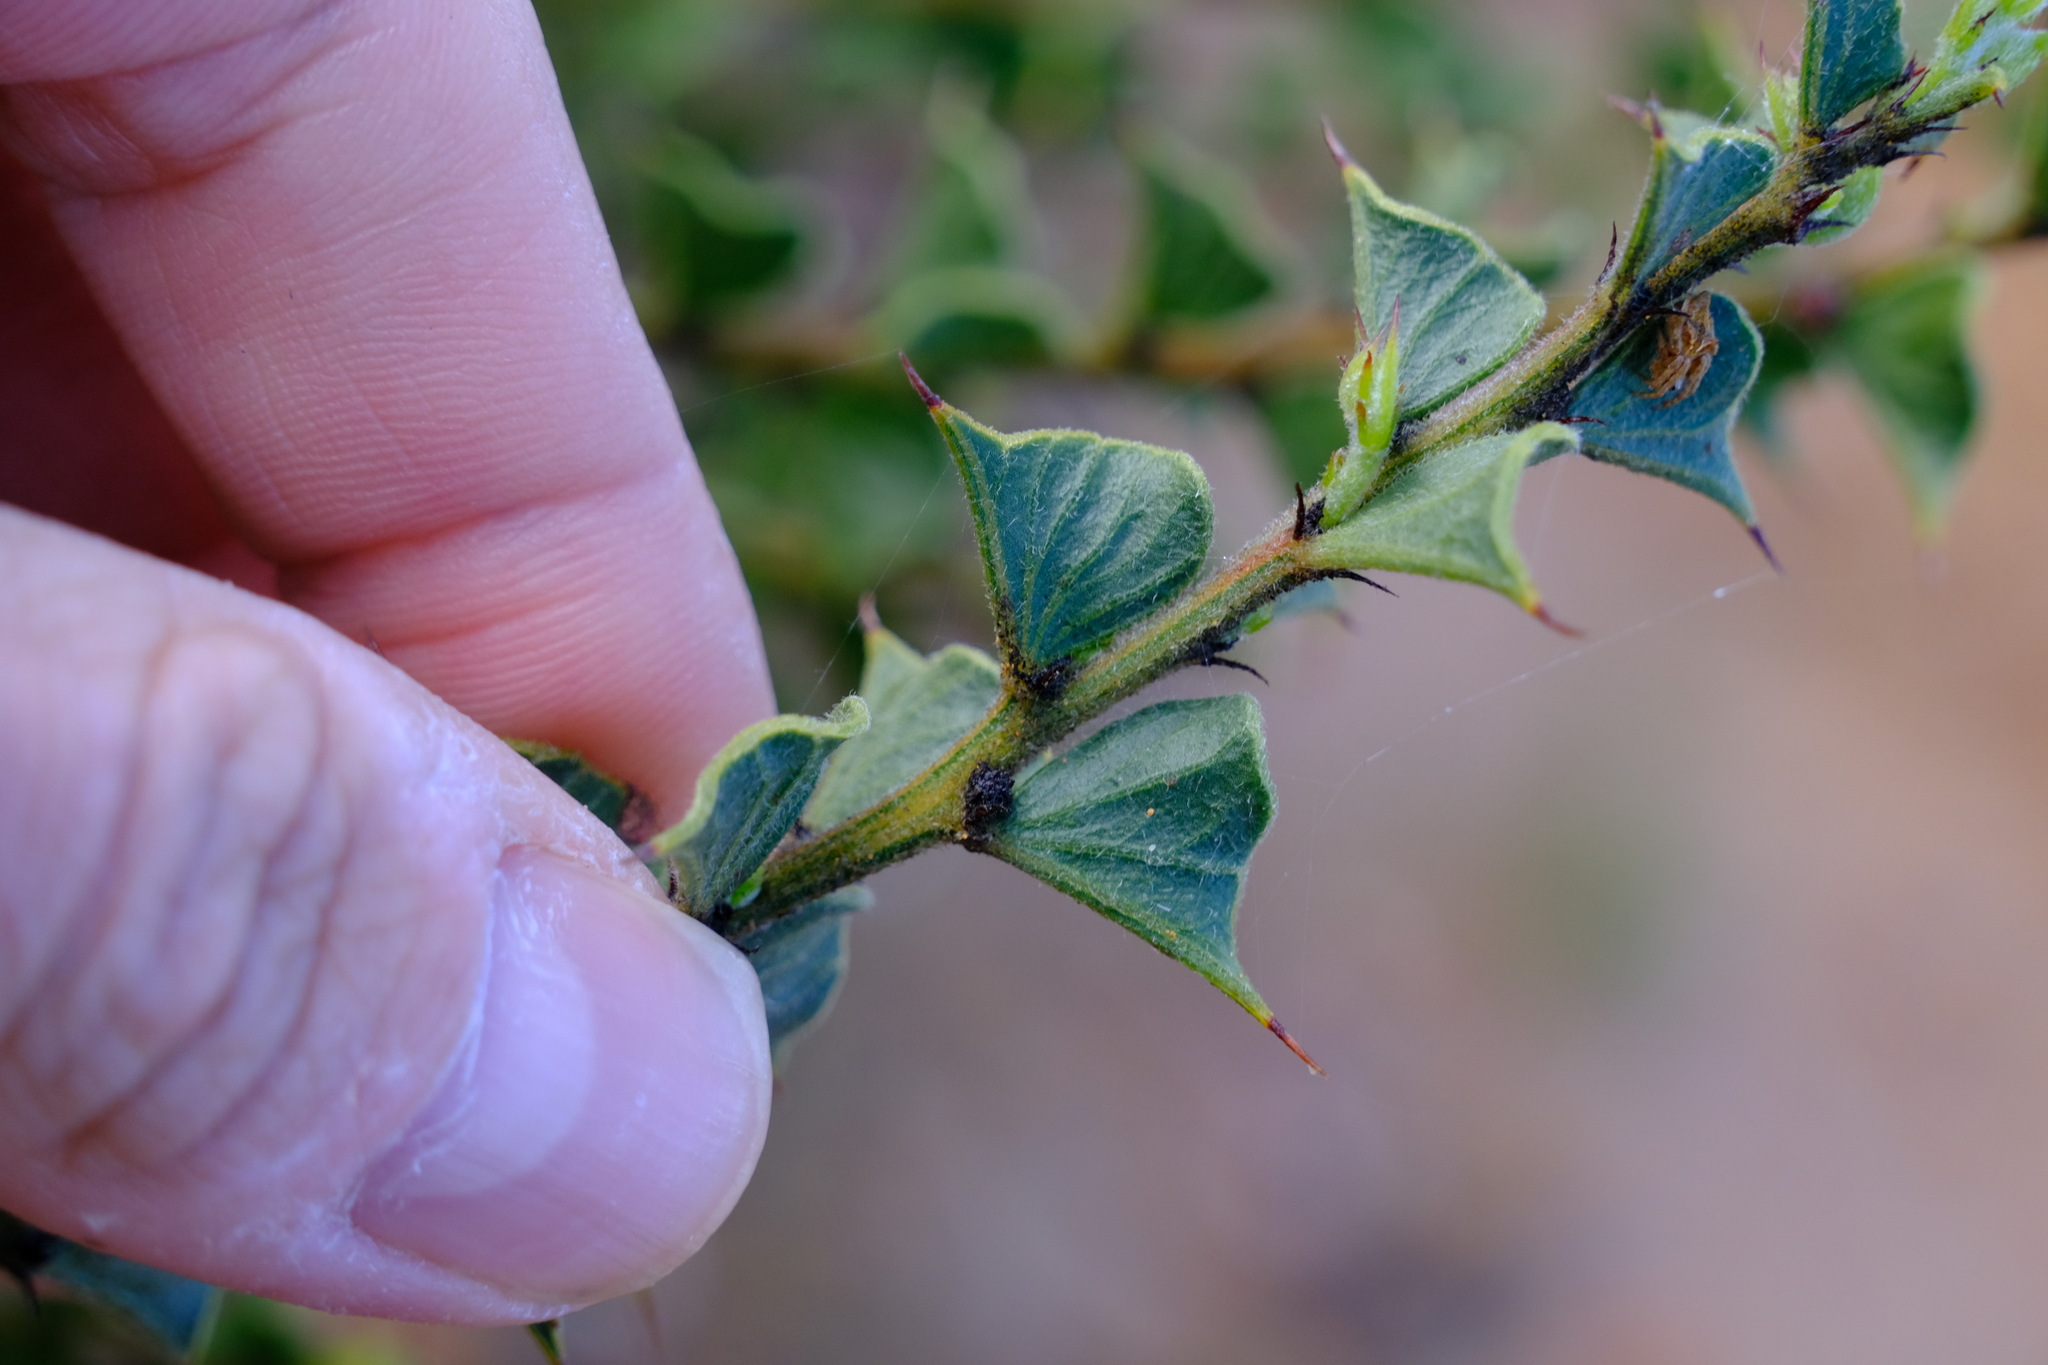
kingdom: Plantae
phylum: Tracheophyta
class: Magnoliopsida
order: Fabales
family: Fabaceae
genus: Acacia
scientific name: Acacia dilatata
